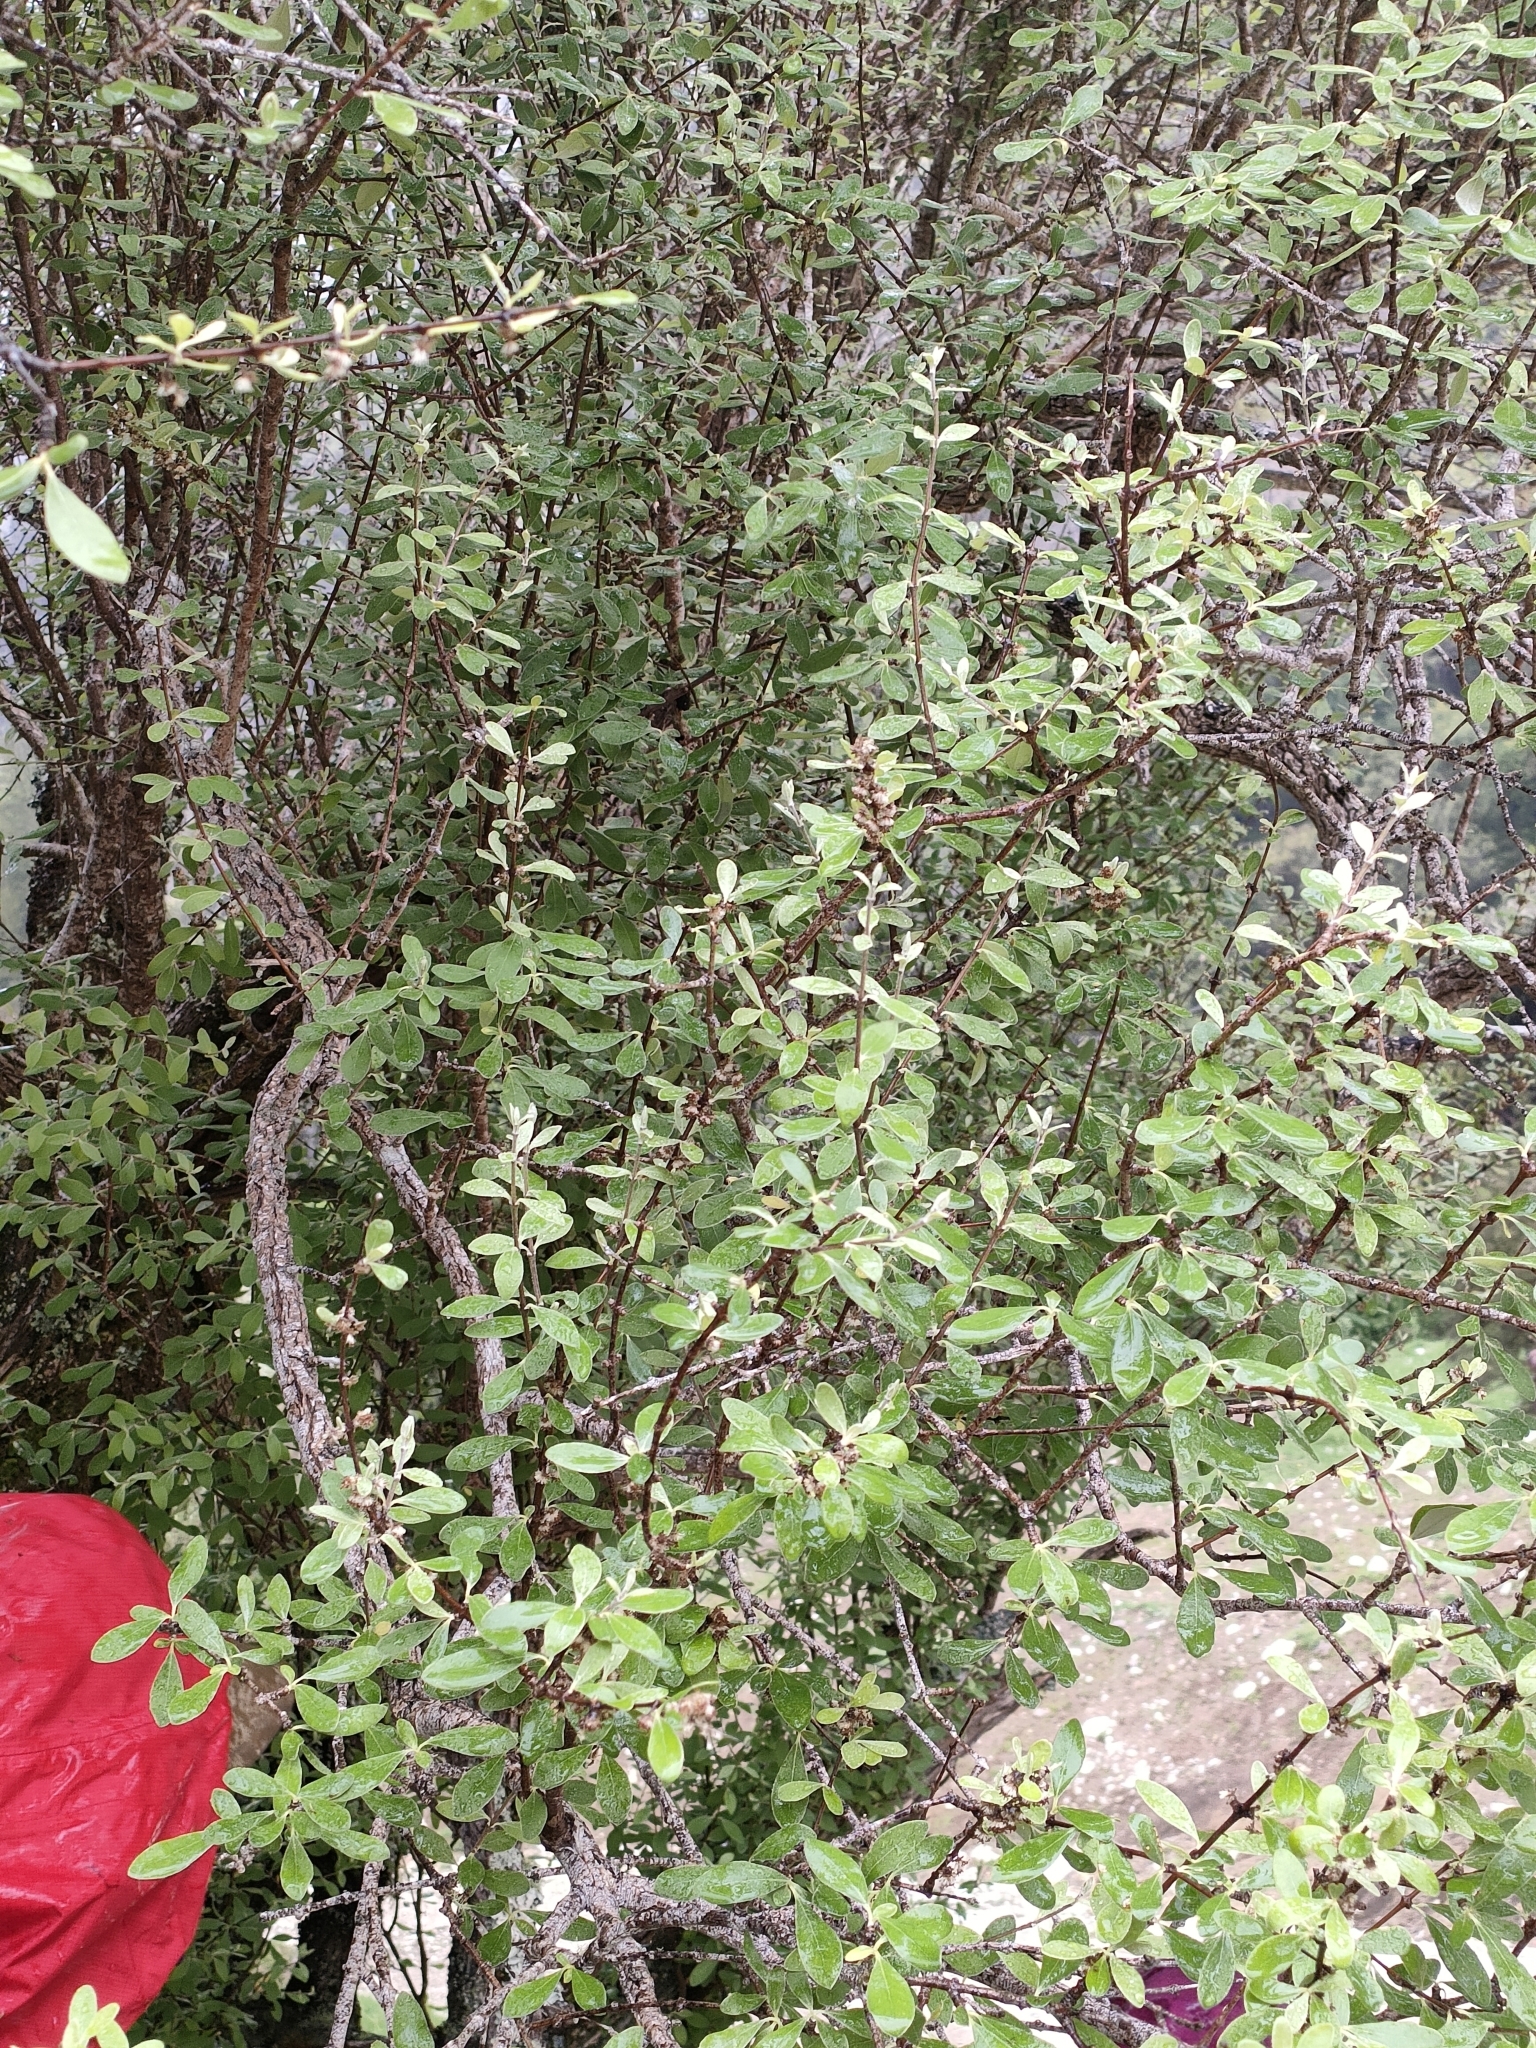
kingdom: Plantae
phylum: Tracheophyta
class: Magnoliopsida
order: Asterales
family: Asteraceae
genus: Olearia
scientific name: Olearia hectorii
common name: Deciduous tree daisy
